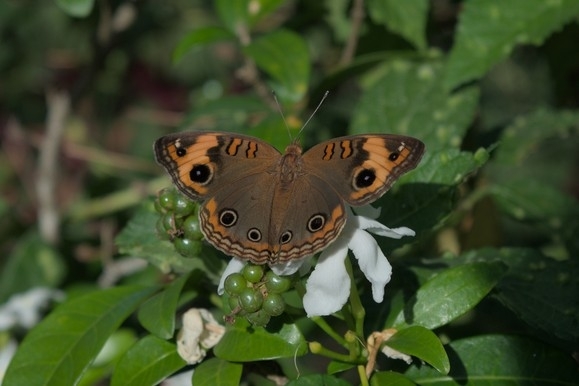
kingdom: Animalia
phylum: Arthropoda
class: Insecta
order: Lepidoptera
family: Nymphalidae
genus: Junonia
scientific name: Junonia lavinia
